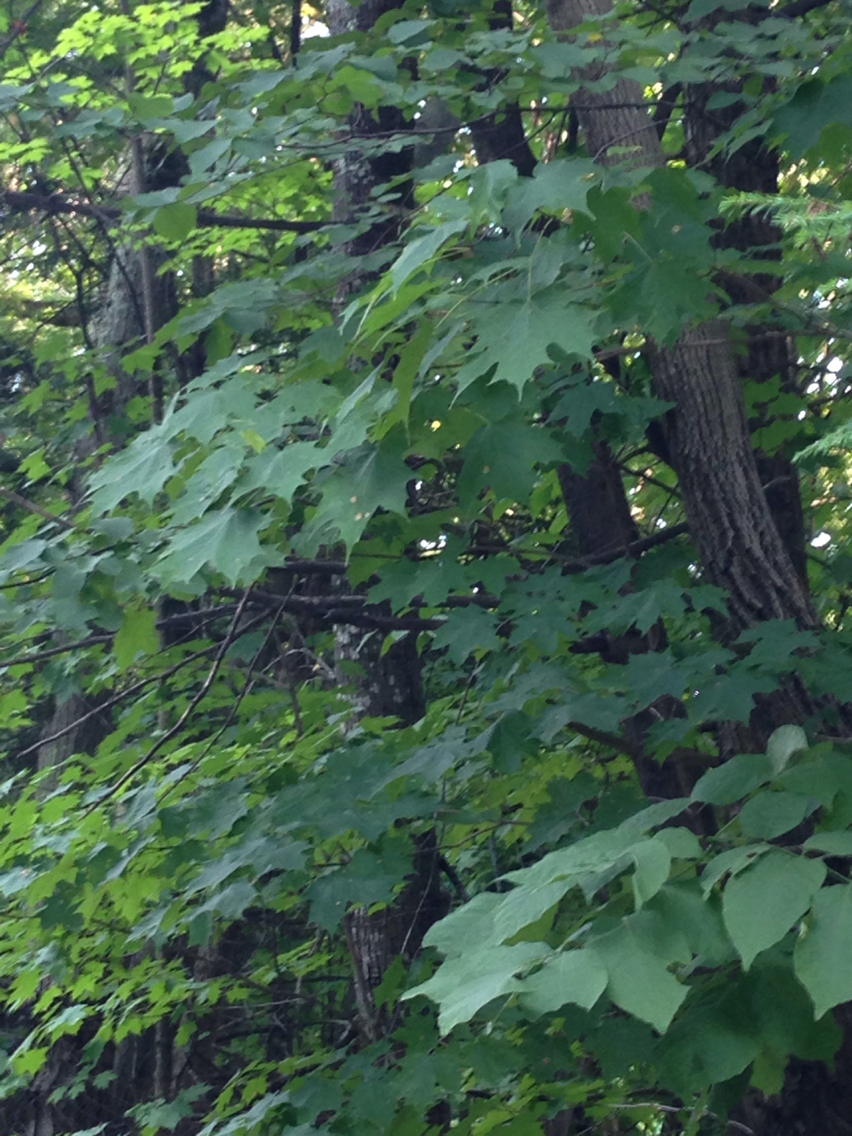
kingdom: Plantae
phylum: Tracheophyta
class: Magnoliopsida
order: Sapindales
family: Sapindaceae
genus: Acer
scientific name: Acer saccharum
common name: Sugar maple
